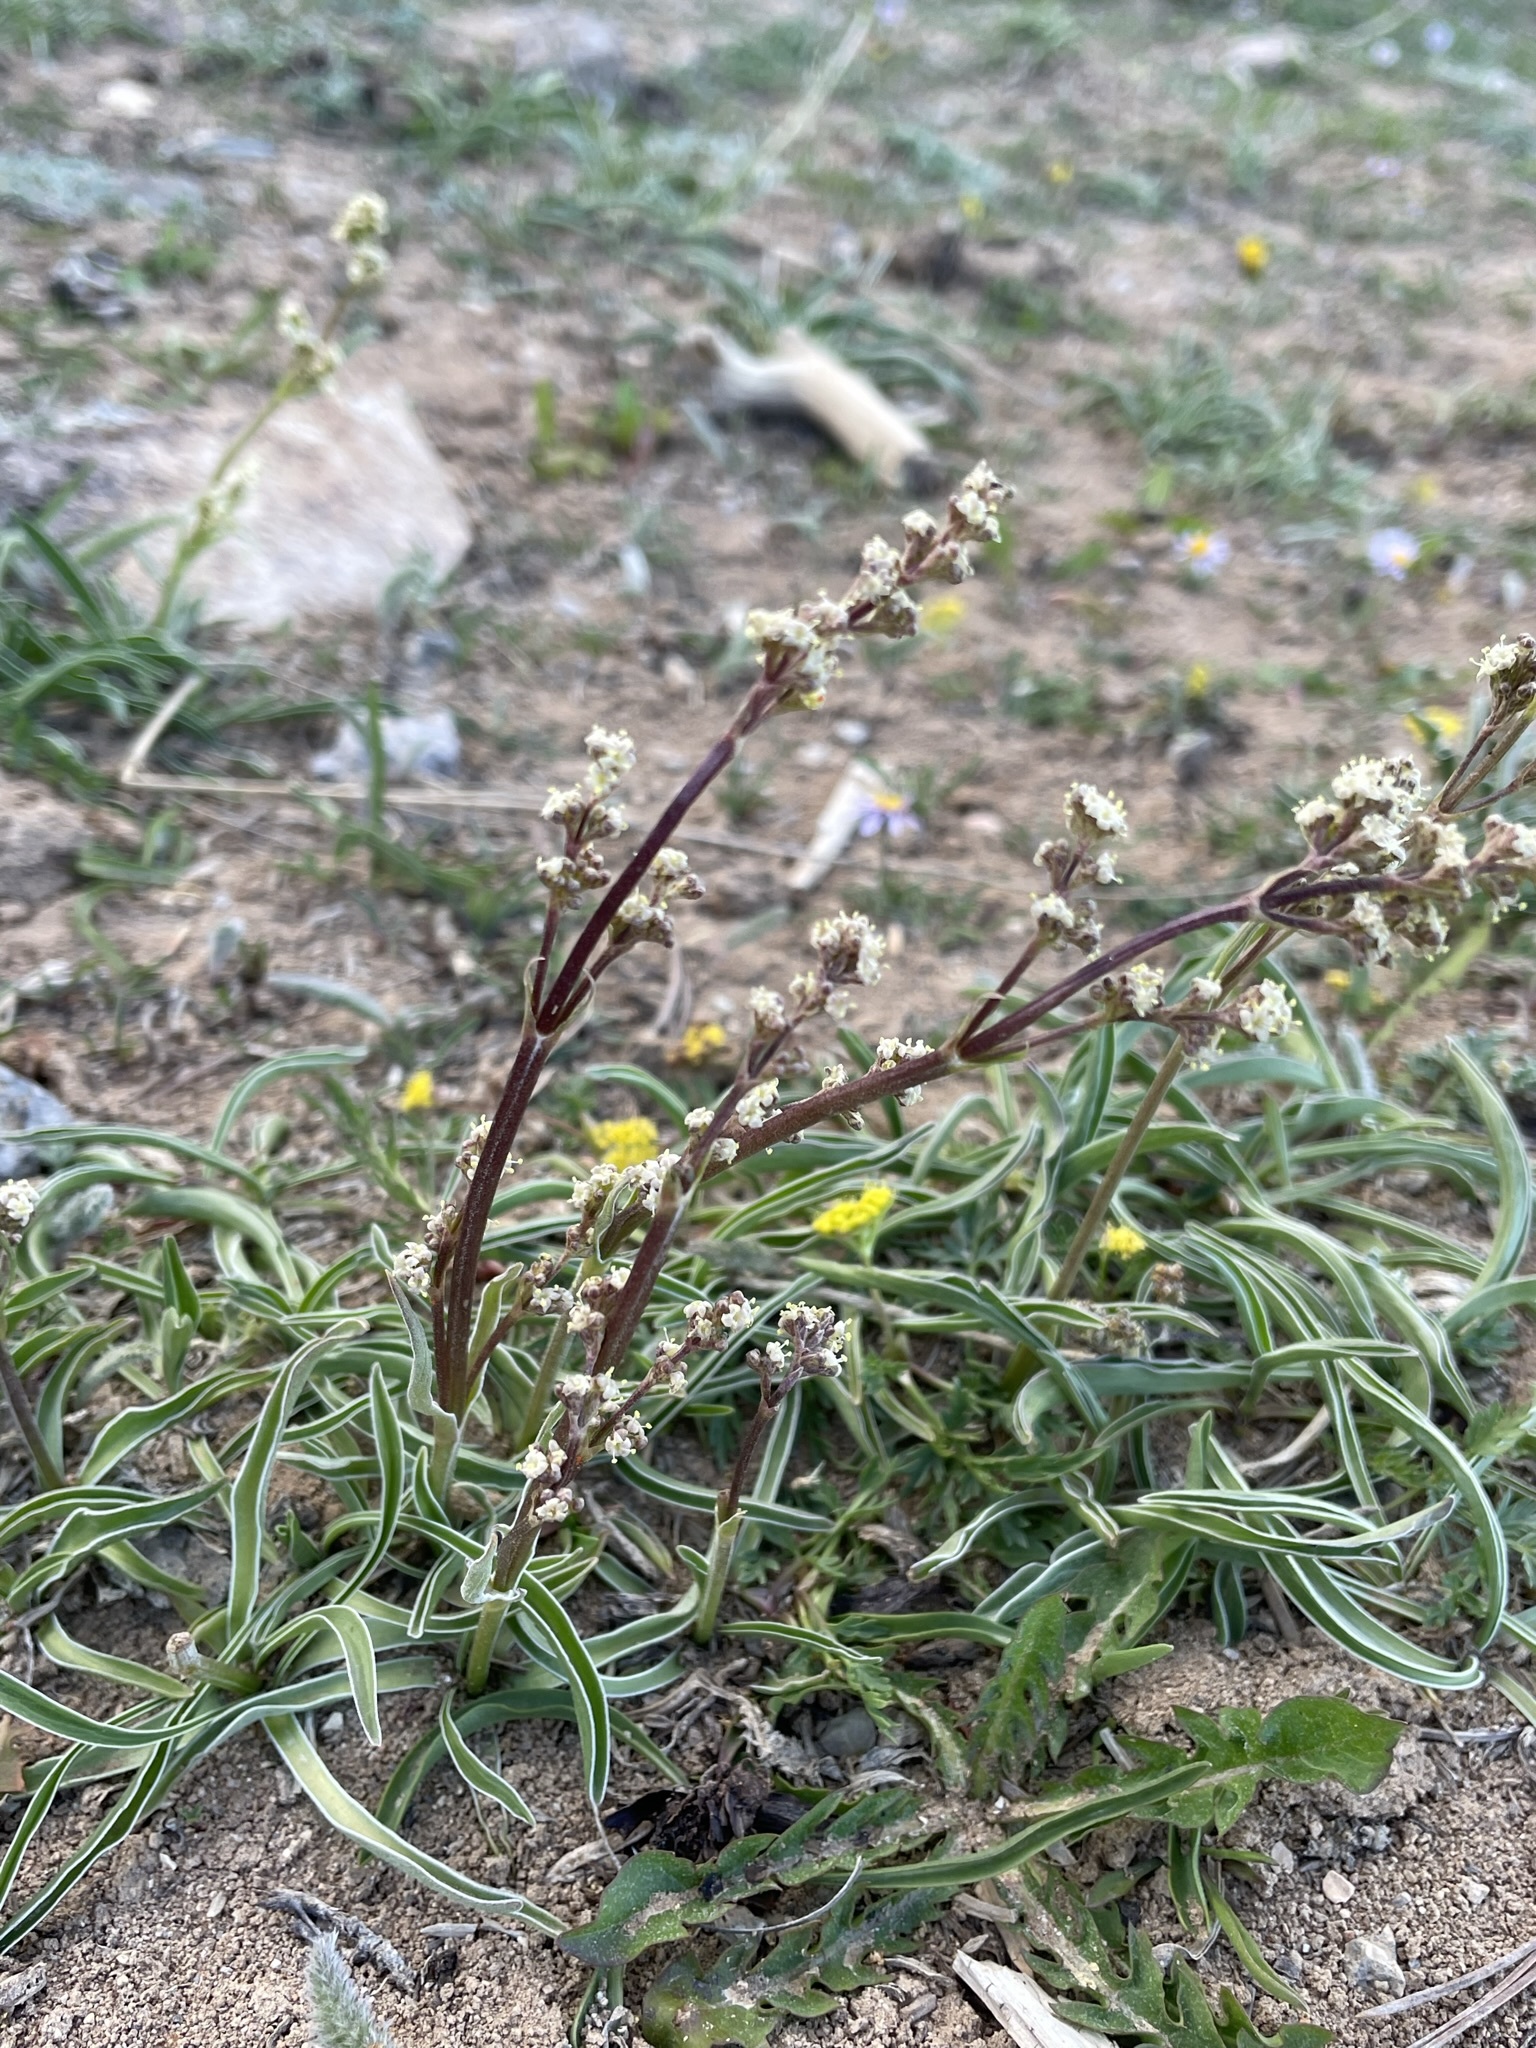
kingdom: Plantae
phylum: Tracheophyta
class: Magnoliopsida
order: Dipsacales
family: Caprifoliaceae
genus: Valeriana
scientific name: Valeriana edulis
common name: Taproot valerian
